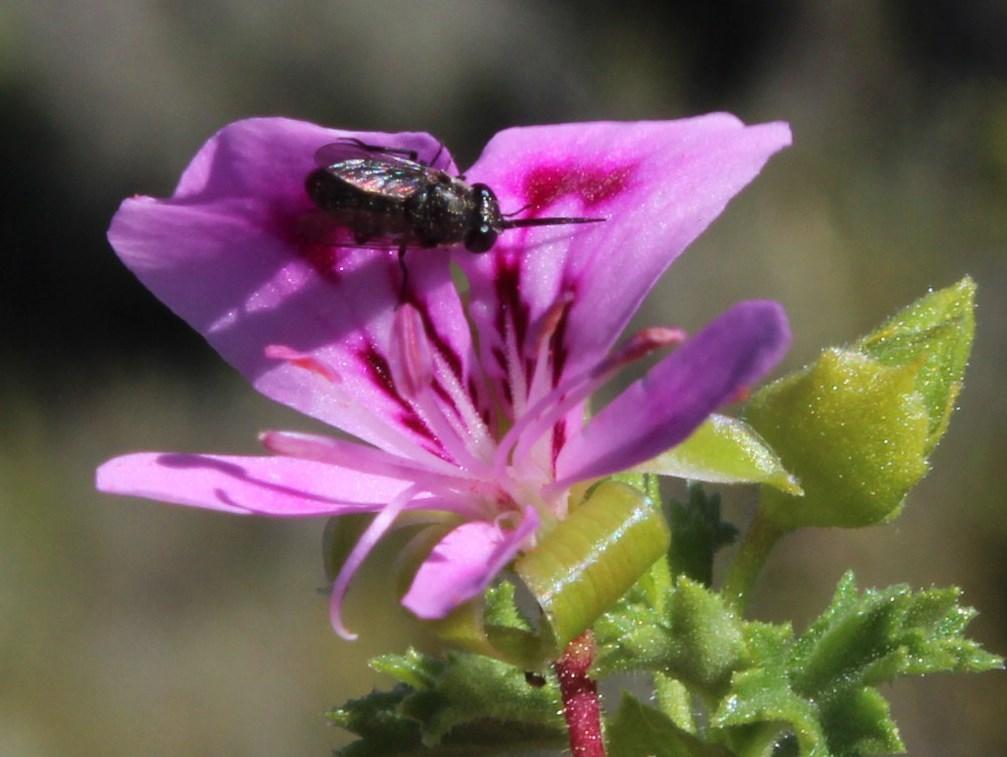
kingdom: Plantae
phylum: Tracheophyta
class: Magnoliopsida
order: Geraniales
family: Geraniaceae
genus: Pelargonium
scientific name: Pelargonium englerianum
